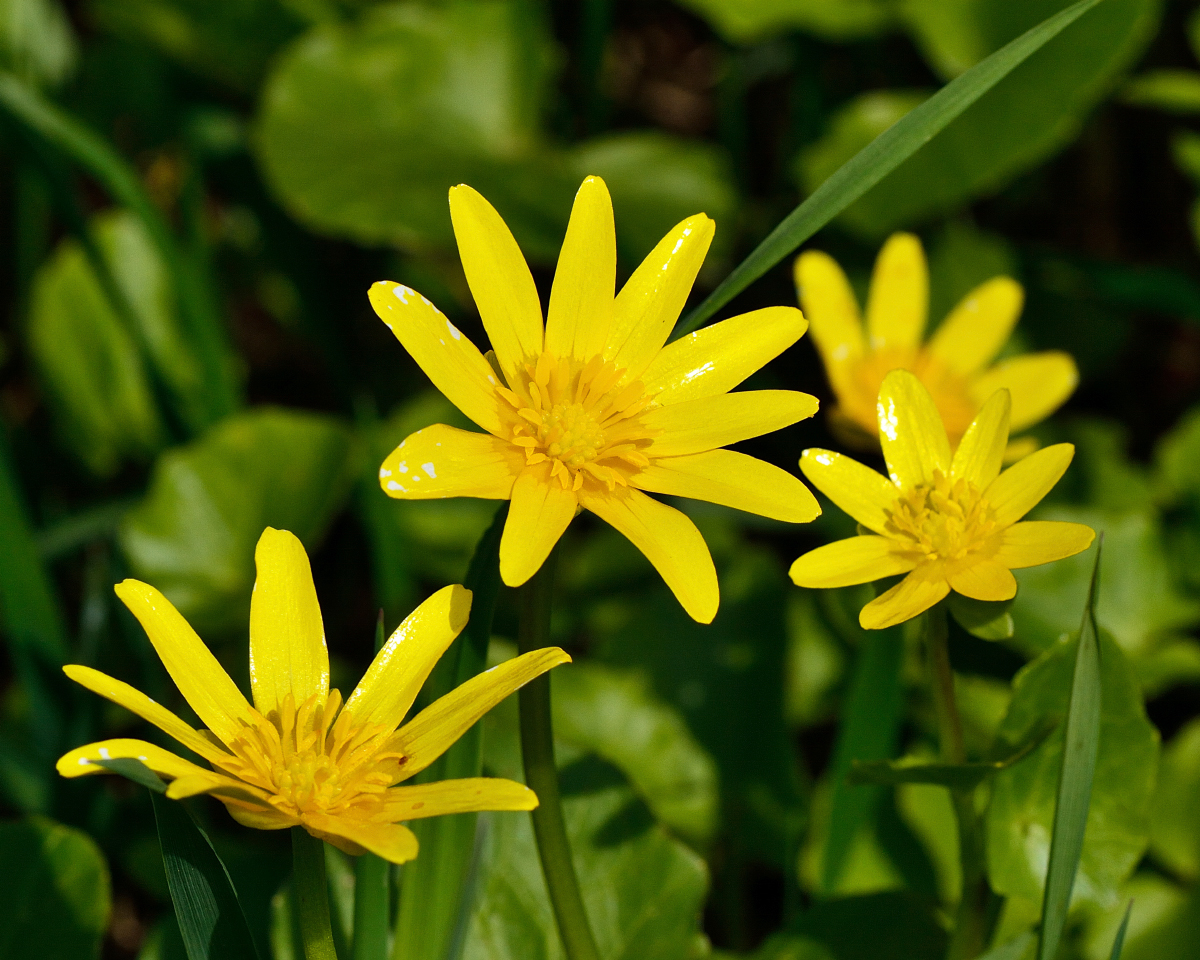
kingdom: Plantae
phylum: Tracheophyta
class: Magnoliopsida
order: Ranunculales
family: Ranunculaceae
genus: Ficaria
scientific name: Ficaria verna
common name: Lesser celandine
